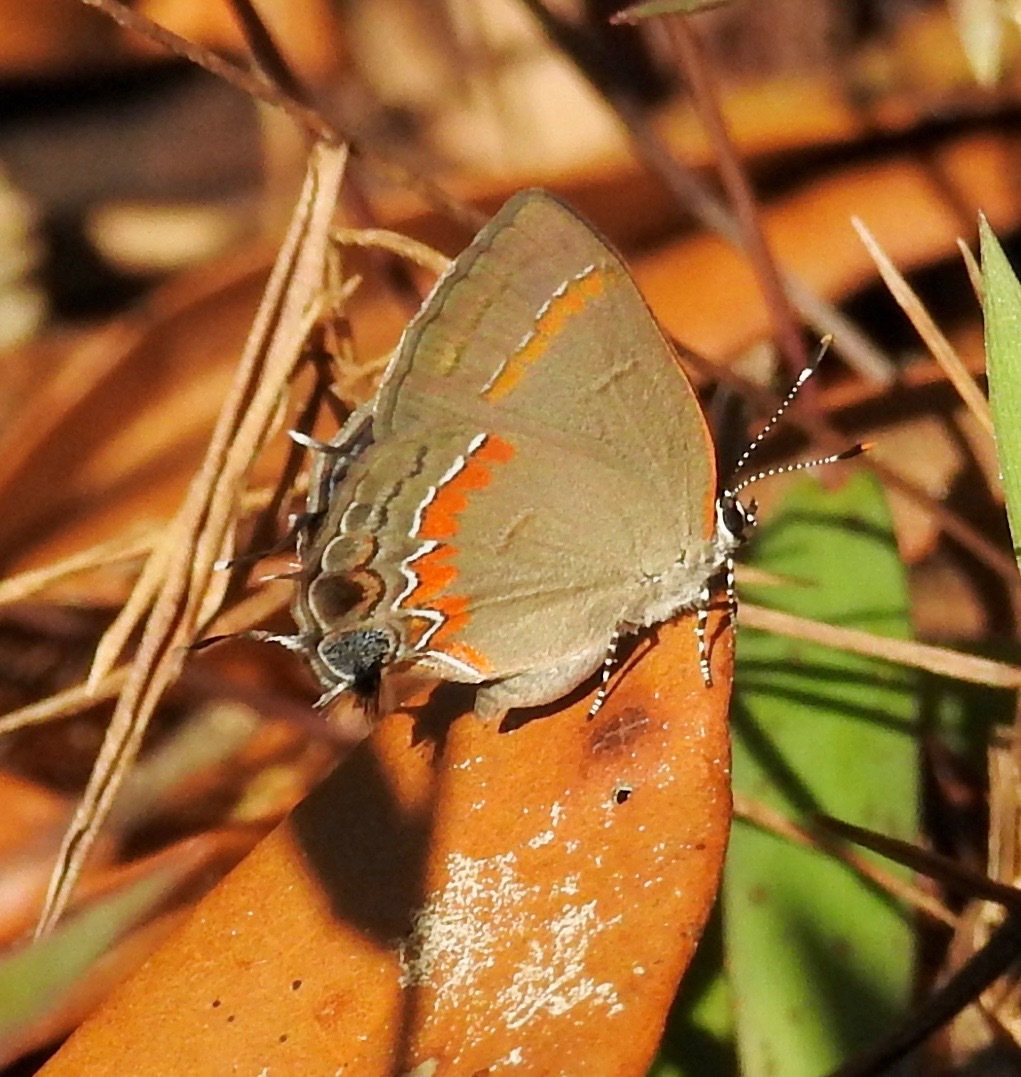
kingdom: Animalia
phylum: Arthropoda
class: Insecta
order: Lepidoptera
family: Lycaenidae
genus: Calycopis
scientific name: Calycopis cecrops
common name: Red-banded hairstreak
